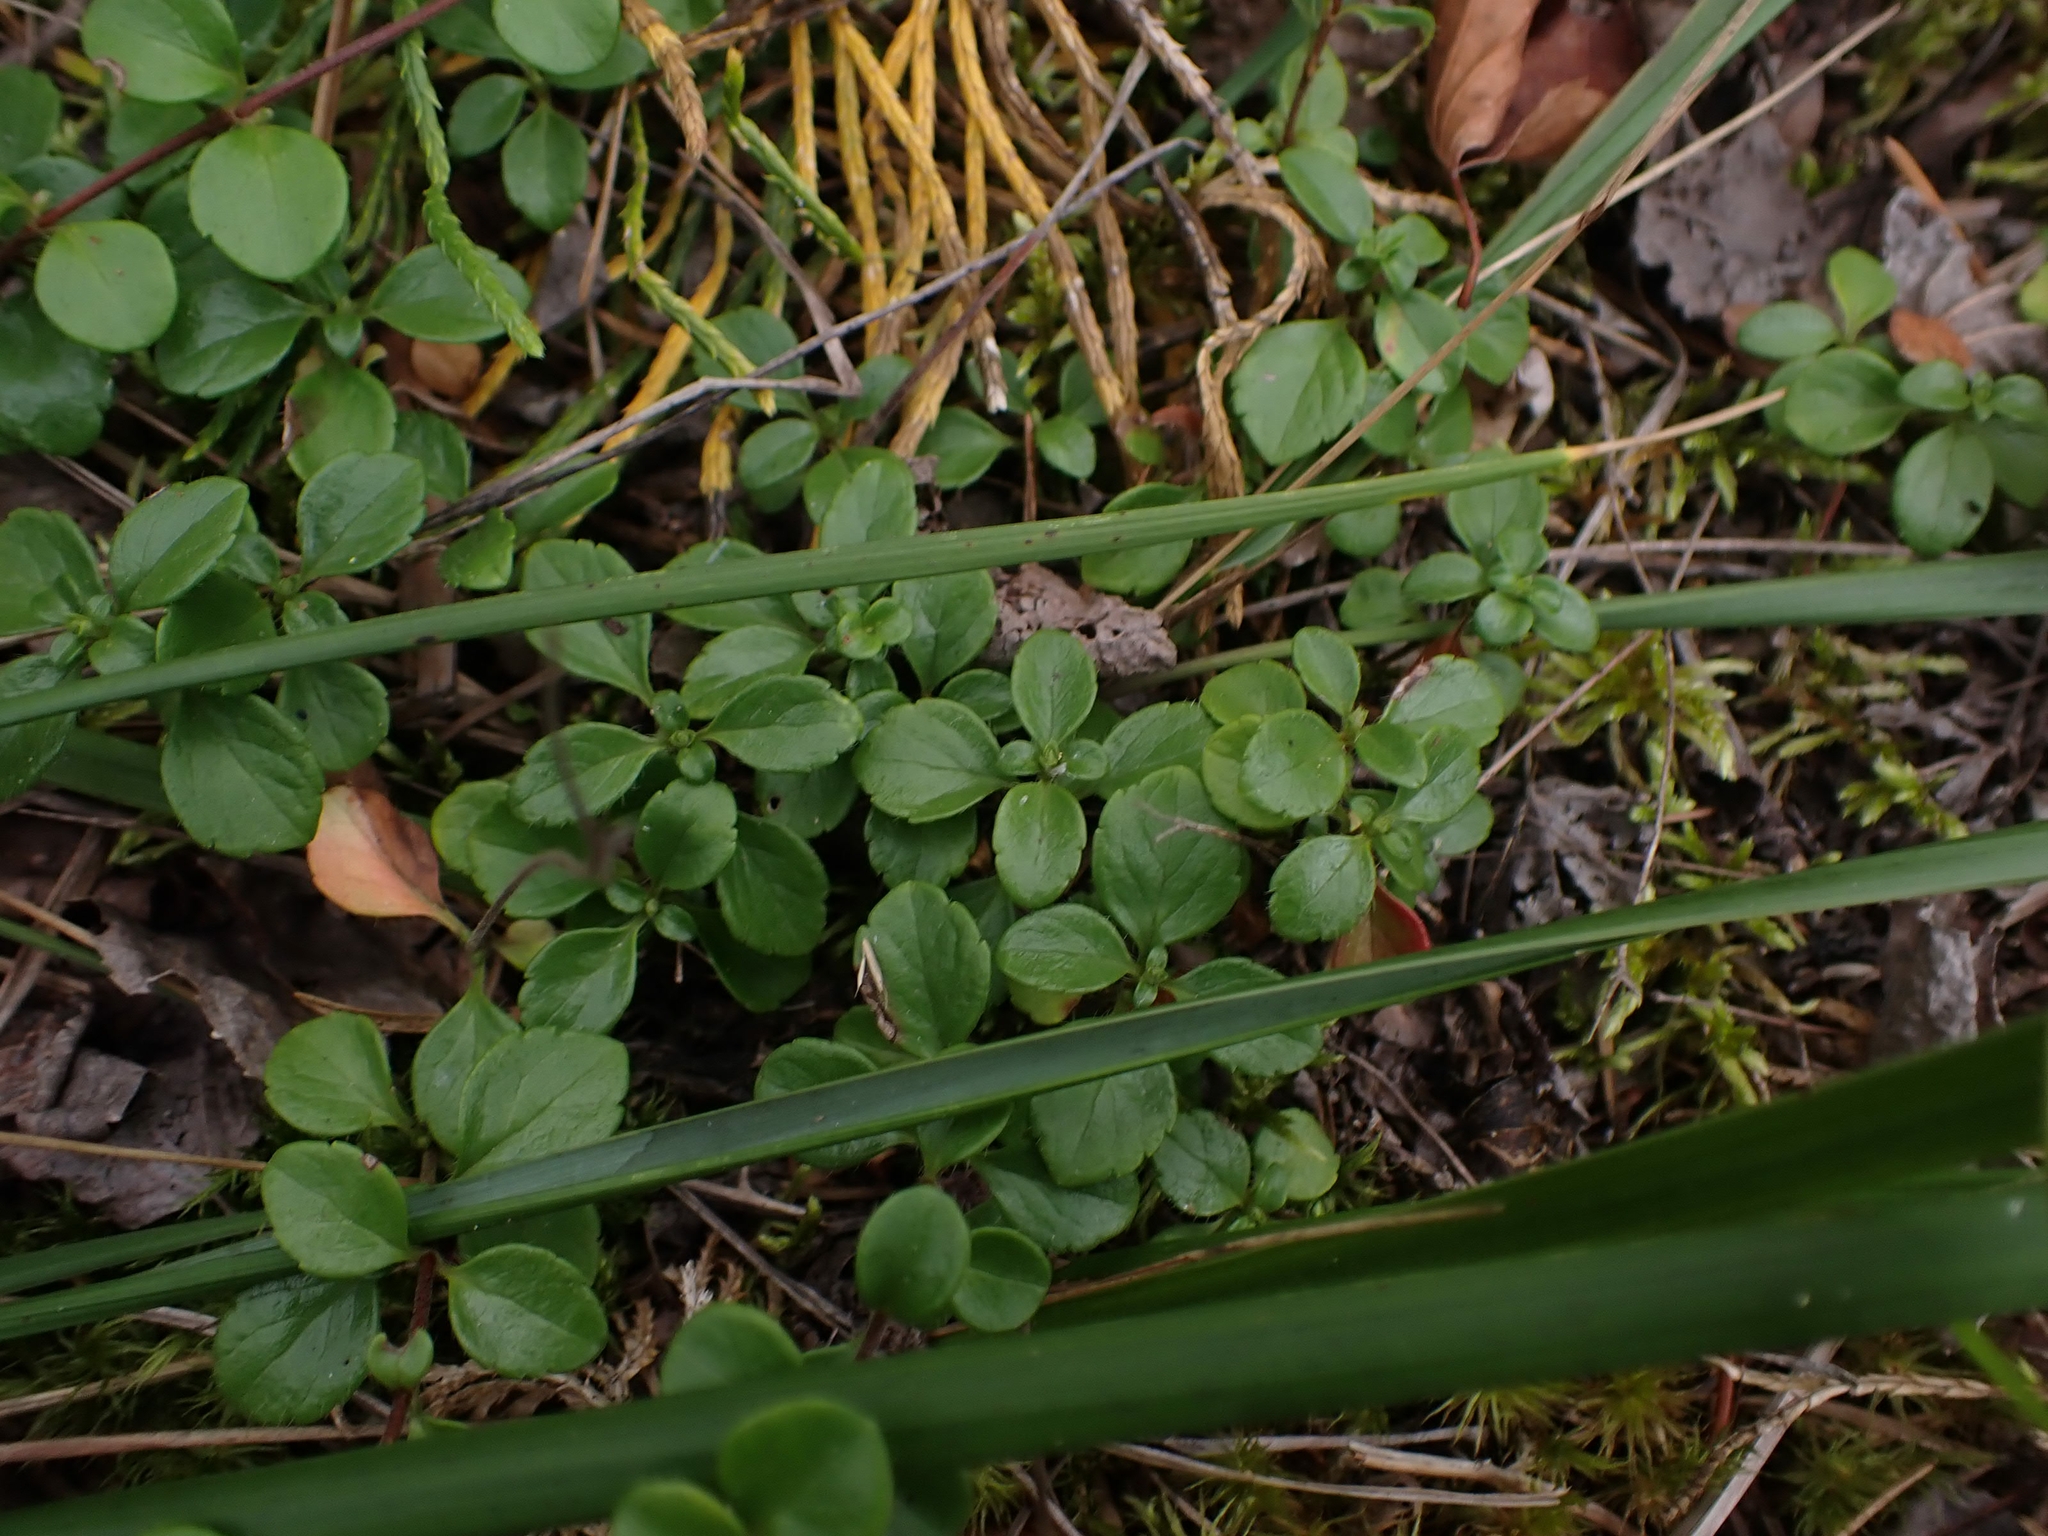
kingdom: Plantae
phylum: Tracheophyta
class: Magnoliopsida
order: Dipsacales
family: Caprifoliaceae
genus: Linnaea
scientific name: Linnaea borealis
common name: Twinflower
